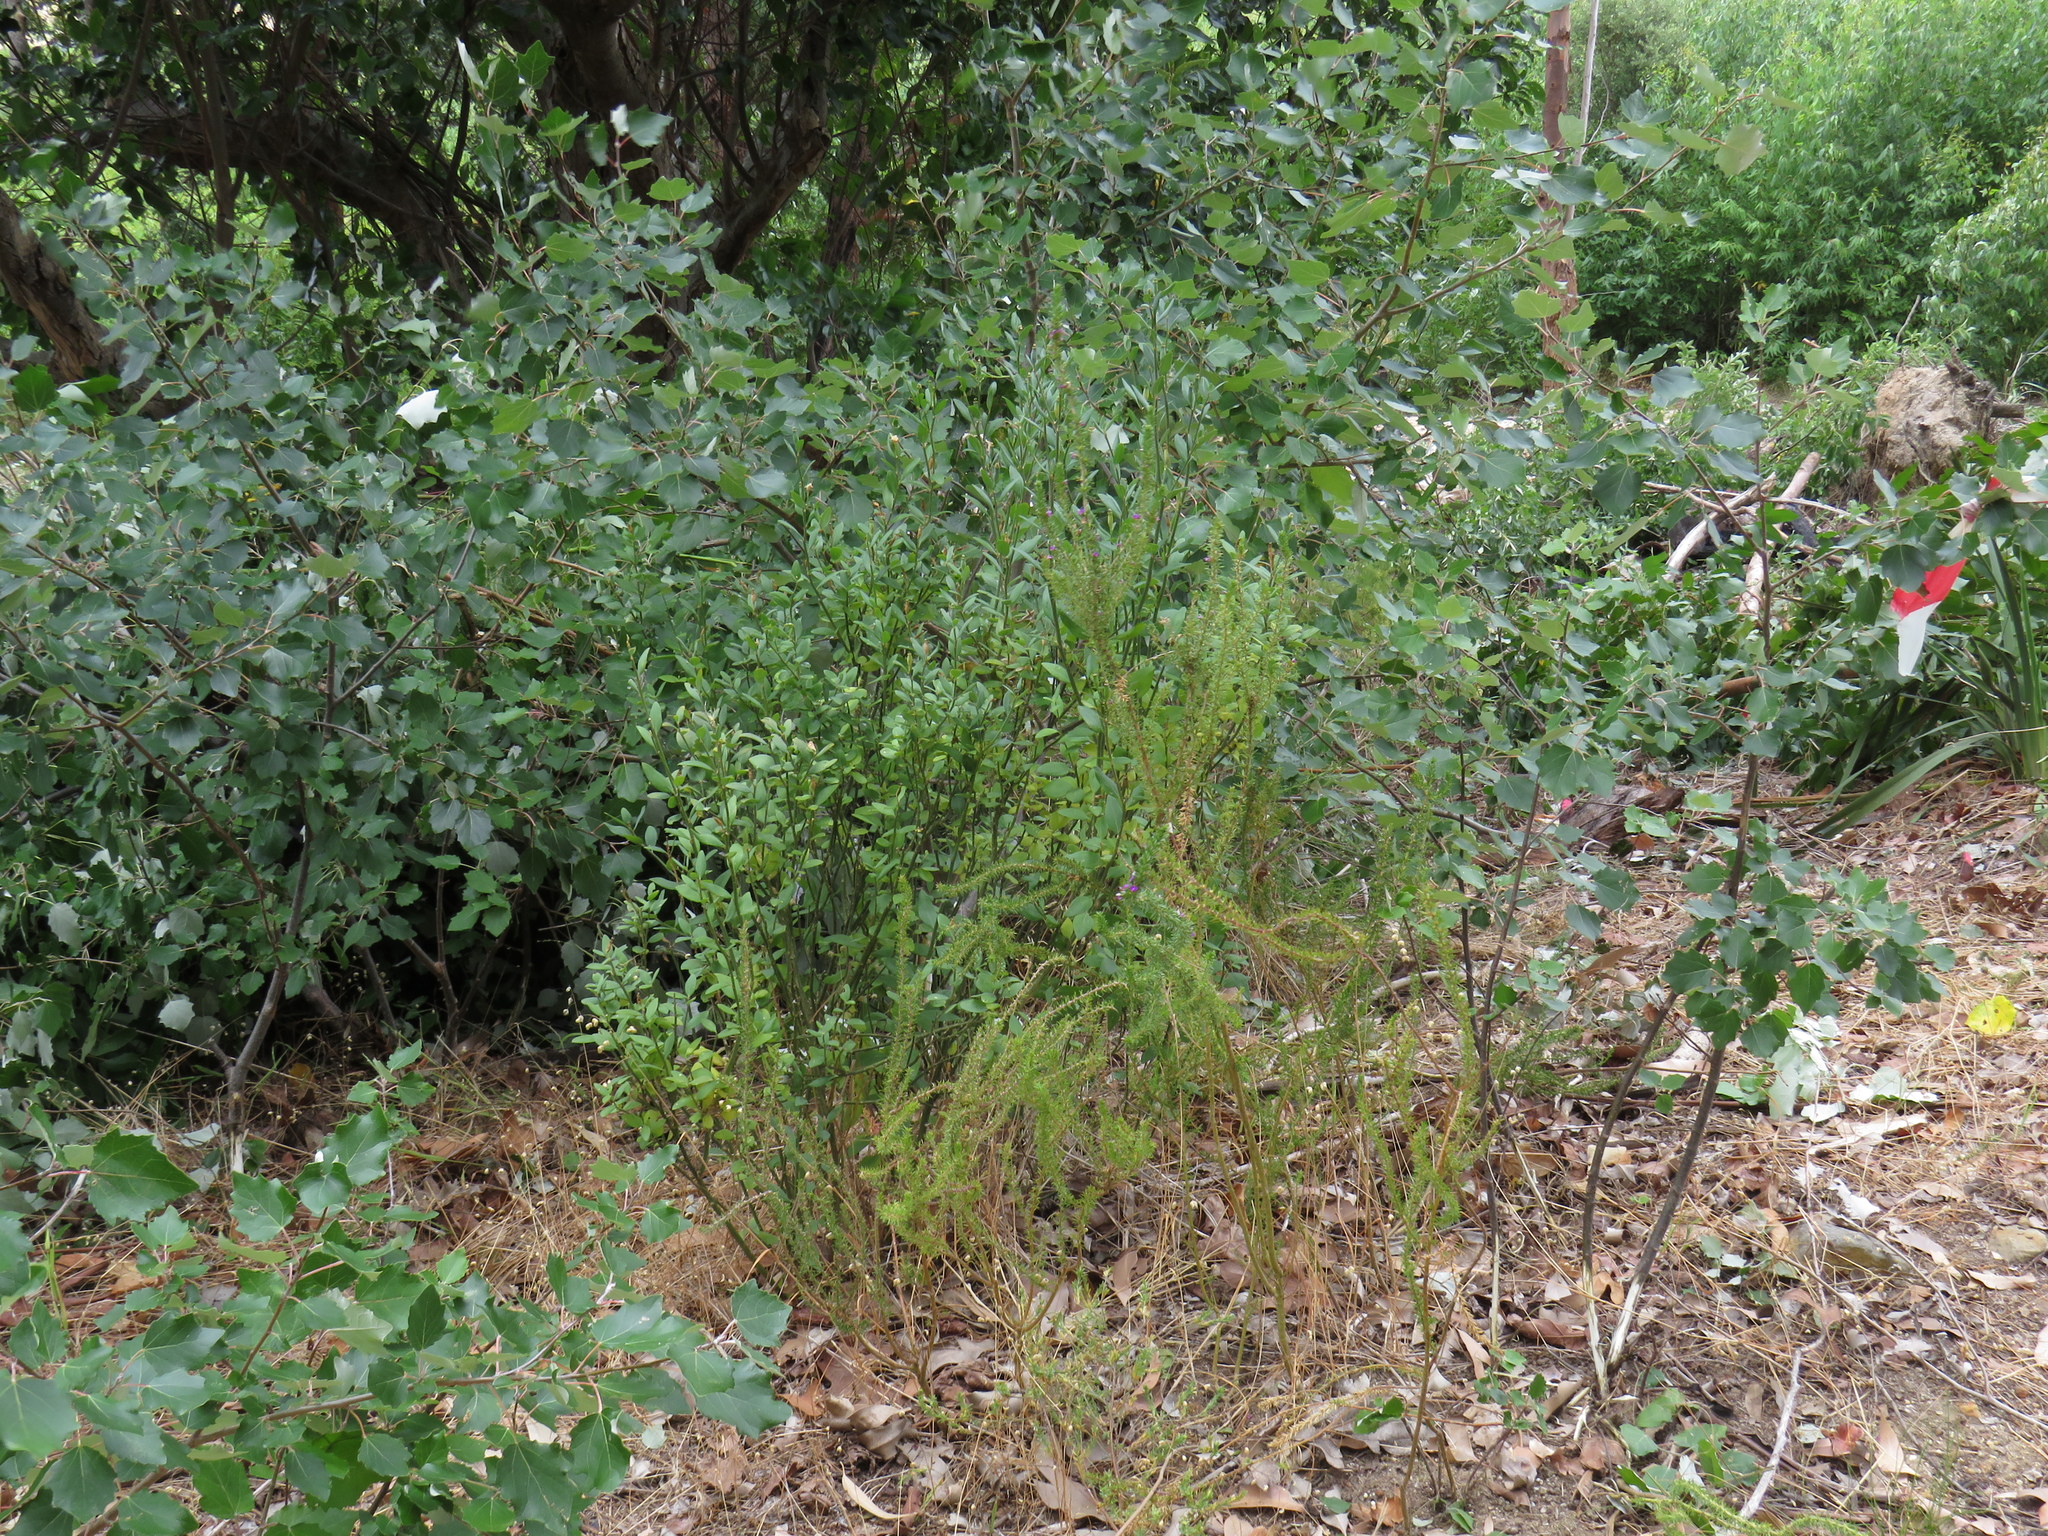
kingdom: Plantae
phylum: Tracheophyta
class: Magnoliopsida
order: Solanales
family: Montiniaceae
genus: Montinia
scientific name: Montinia caryophyllacea
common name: Wild clove-bush
